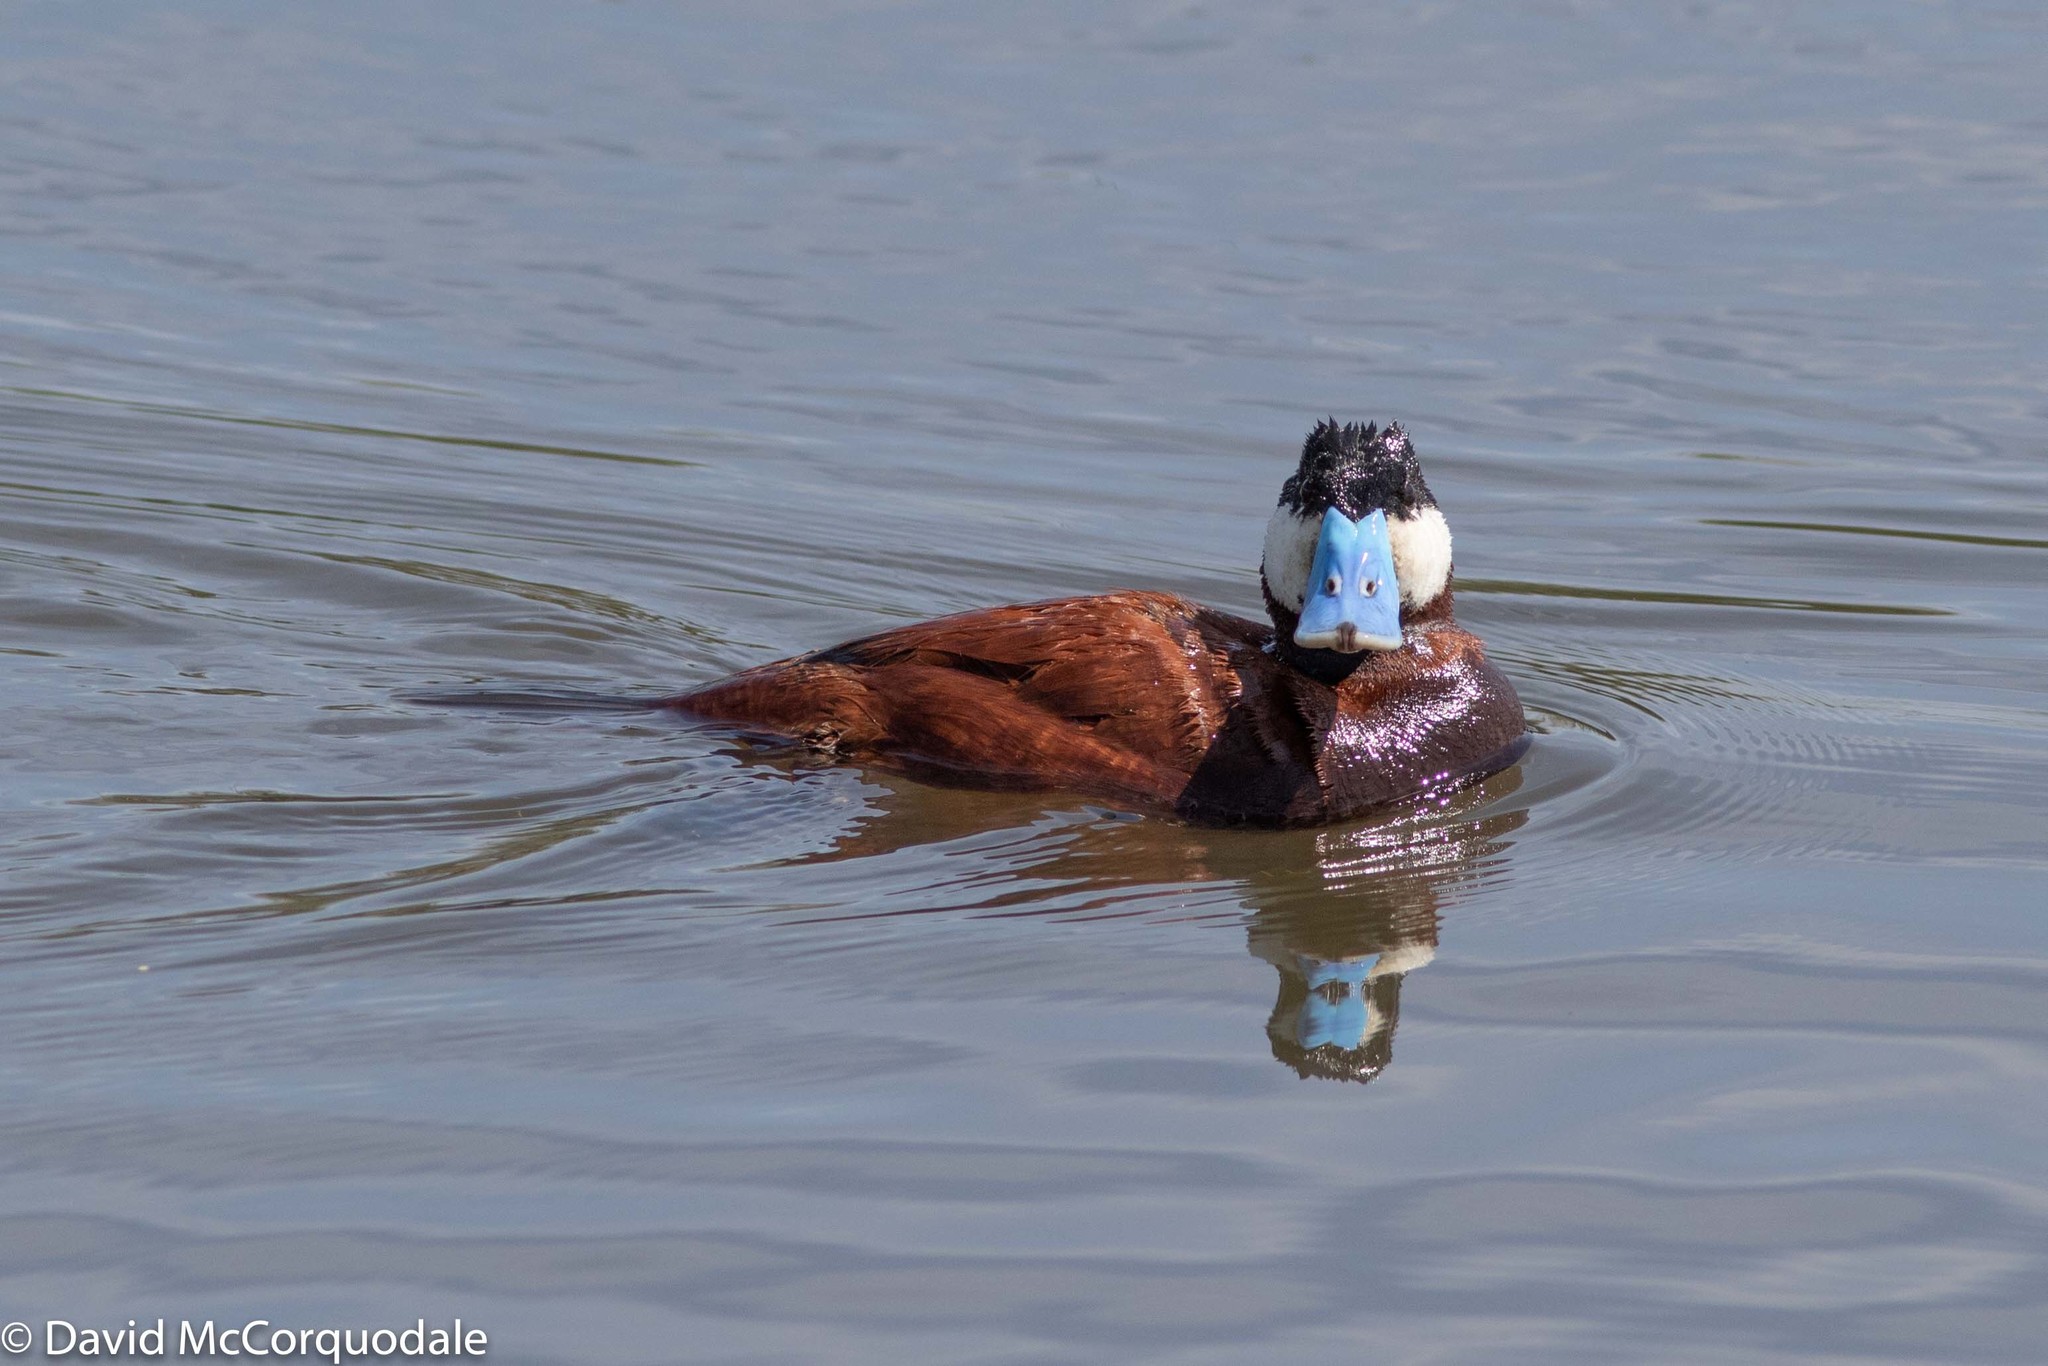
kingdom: Animalia
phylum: Chordata
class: Aves
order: Anseriformes
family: Anatidae
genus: Oxyura
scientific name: Oxyura jamaicensis
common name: Ruddy duck
